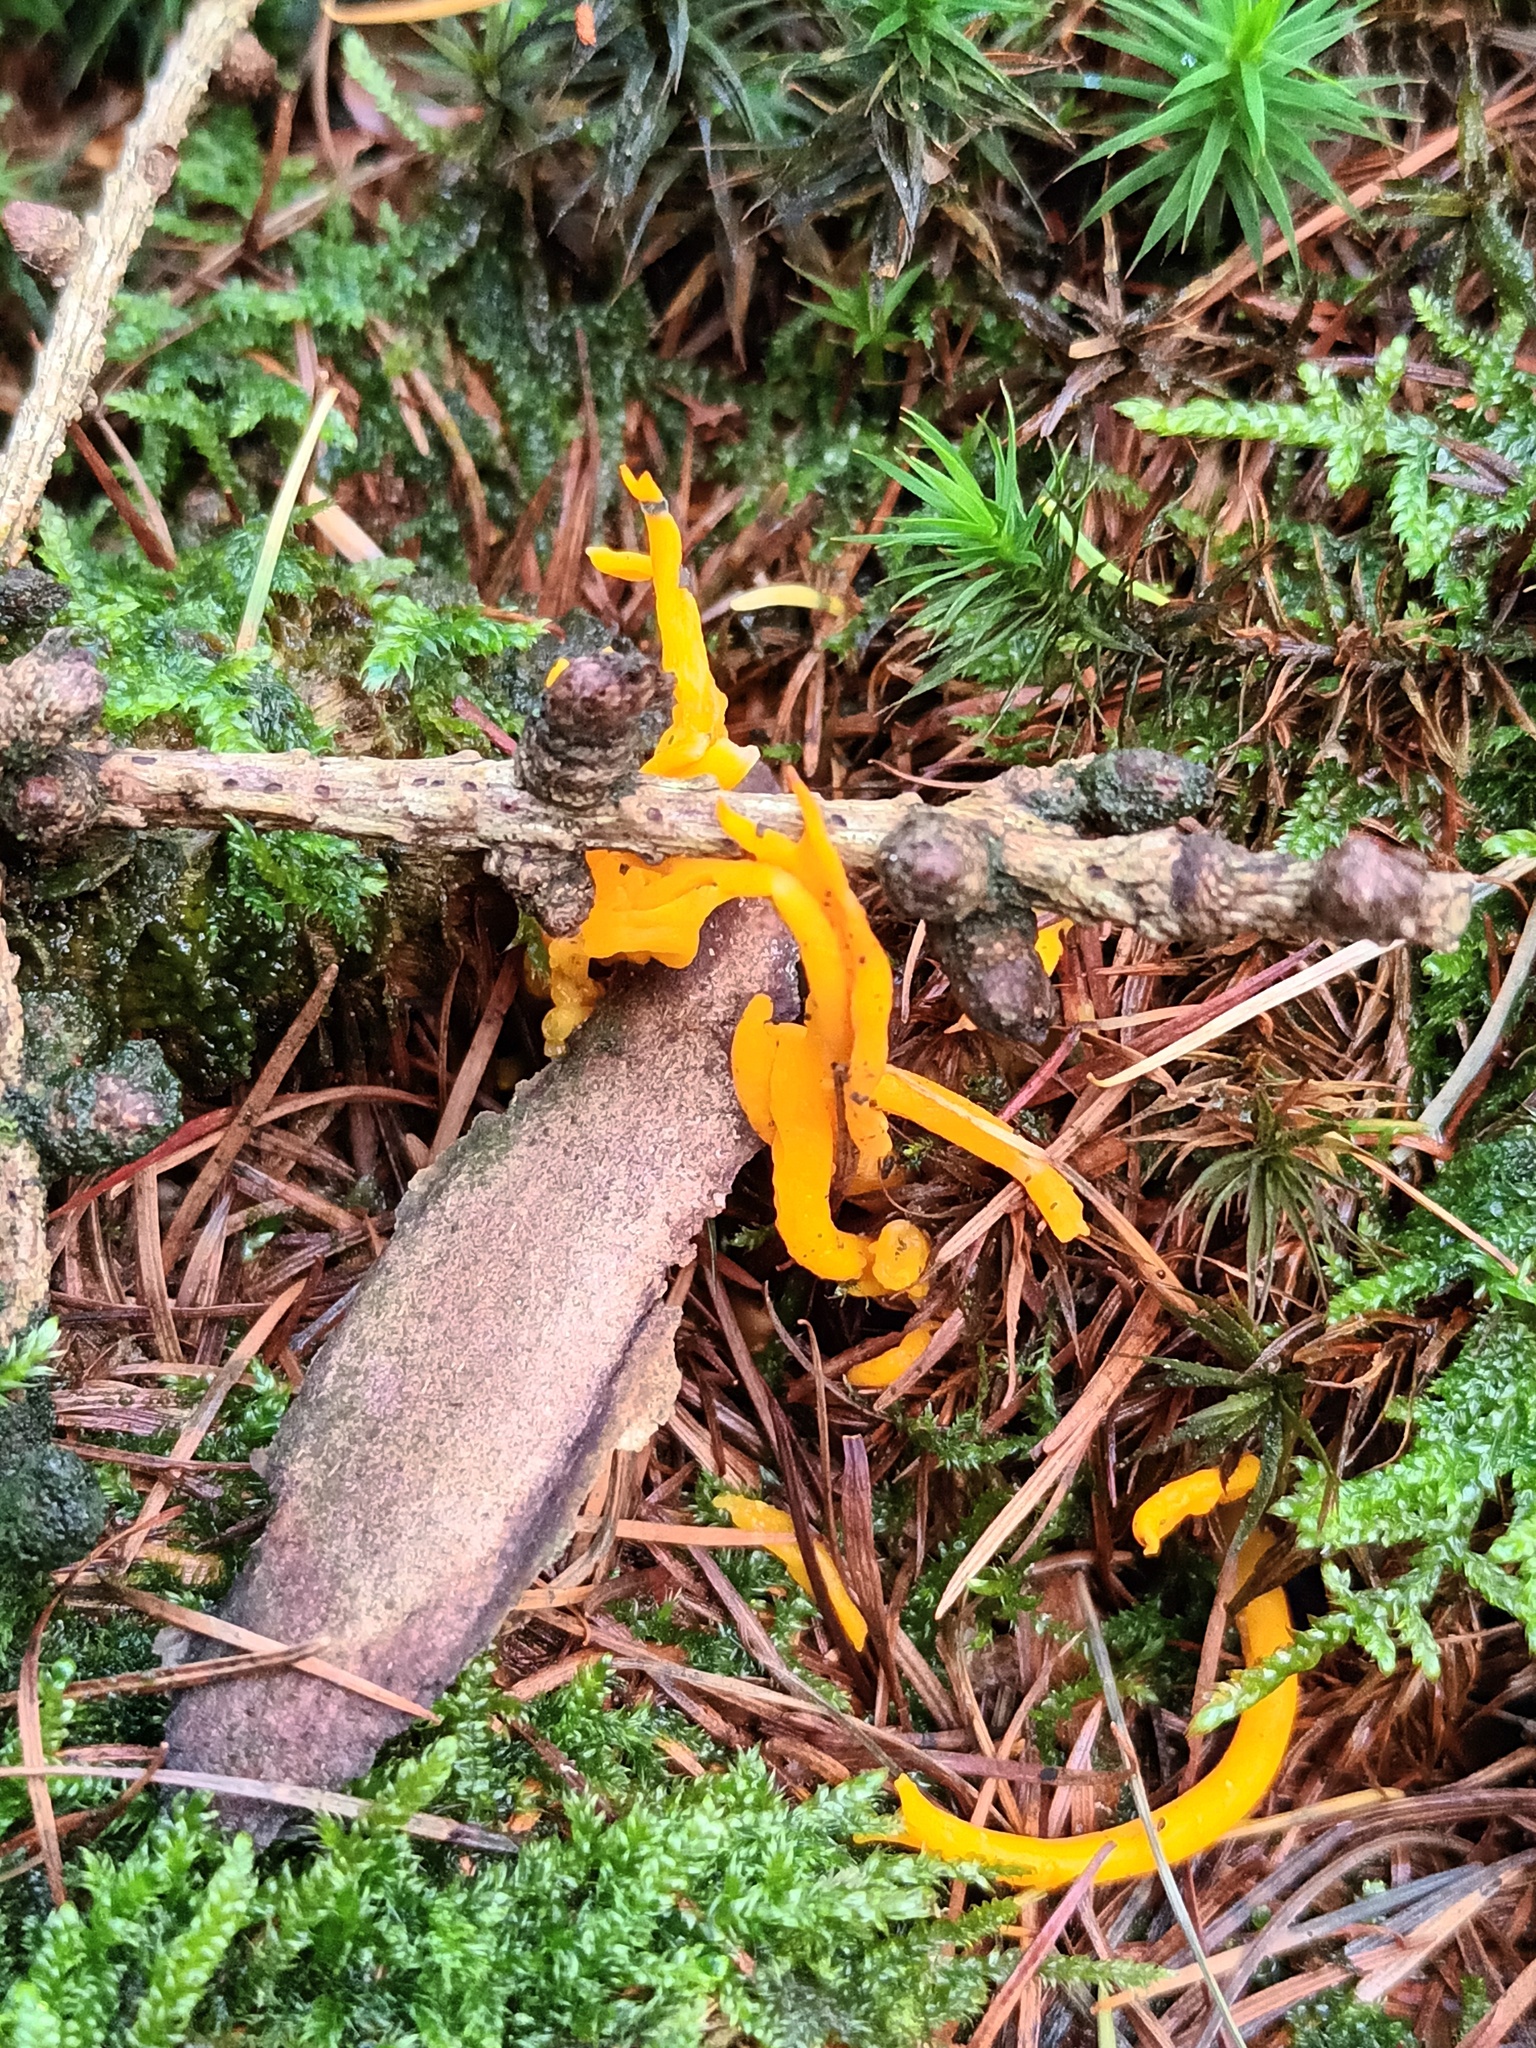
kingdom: Fungi
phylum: Basidiomycota
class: Dacrymycetes
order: Dacrymycetales
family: Dacrymycetaceae
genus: Calocera
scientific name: Calocera viscosa
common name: Yellow stagshorn
